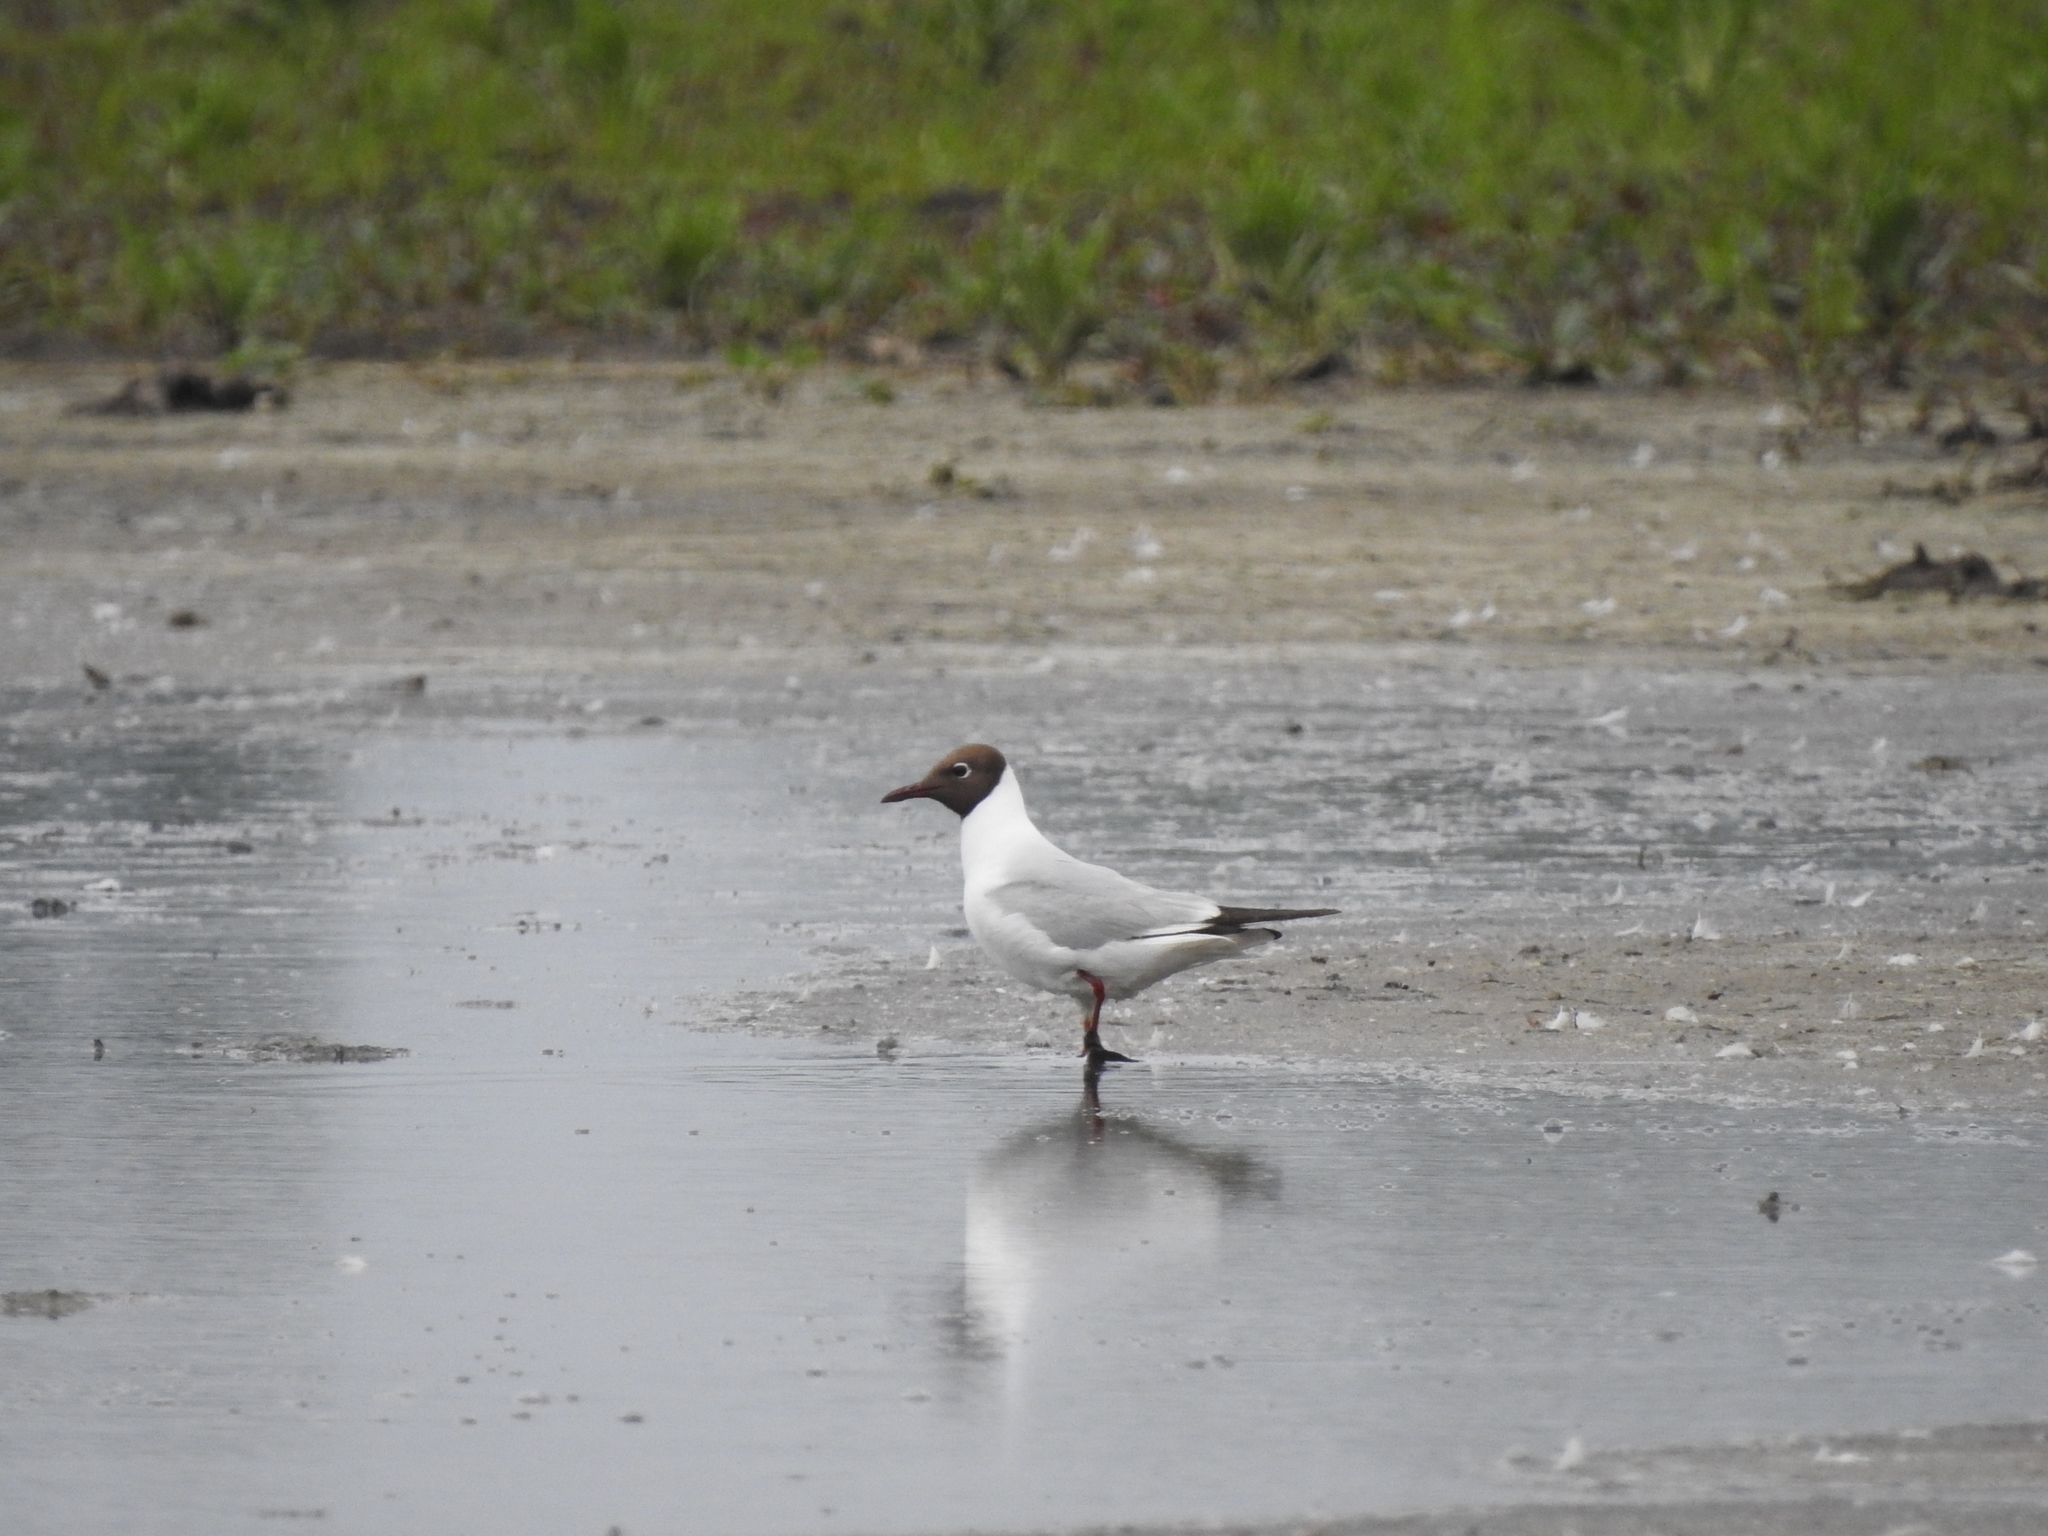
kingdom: Animalia
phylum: Chordata
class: Aves
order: Charadriiformes
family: Laridae
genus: Chroicocephalus
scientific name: Chroicocephalus ridibundus
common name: Black-headed gull
